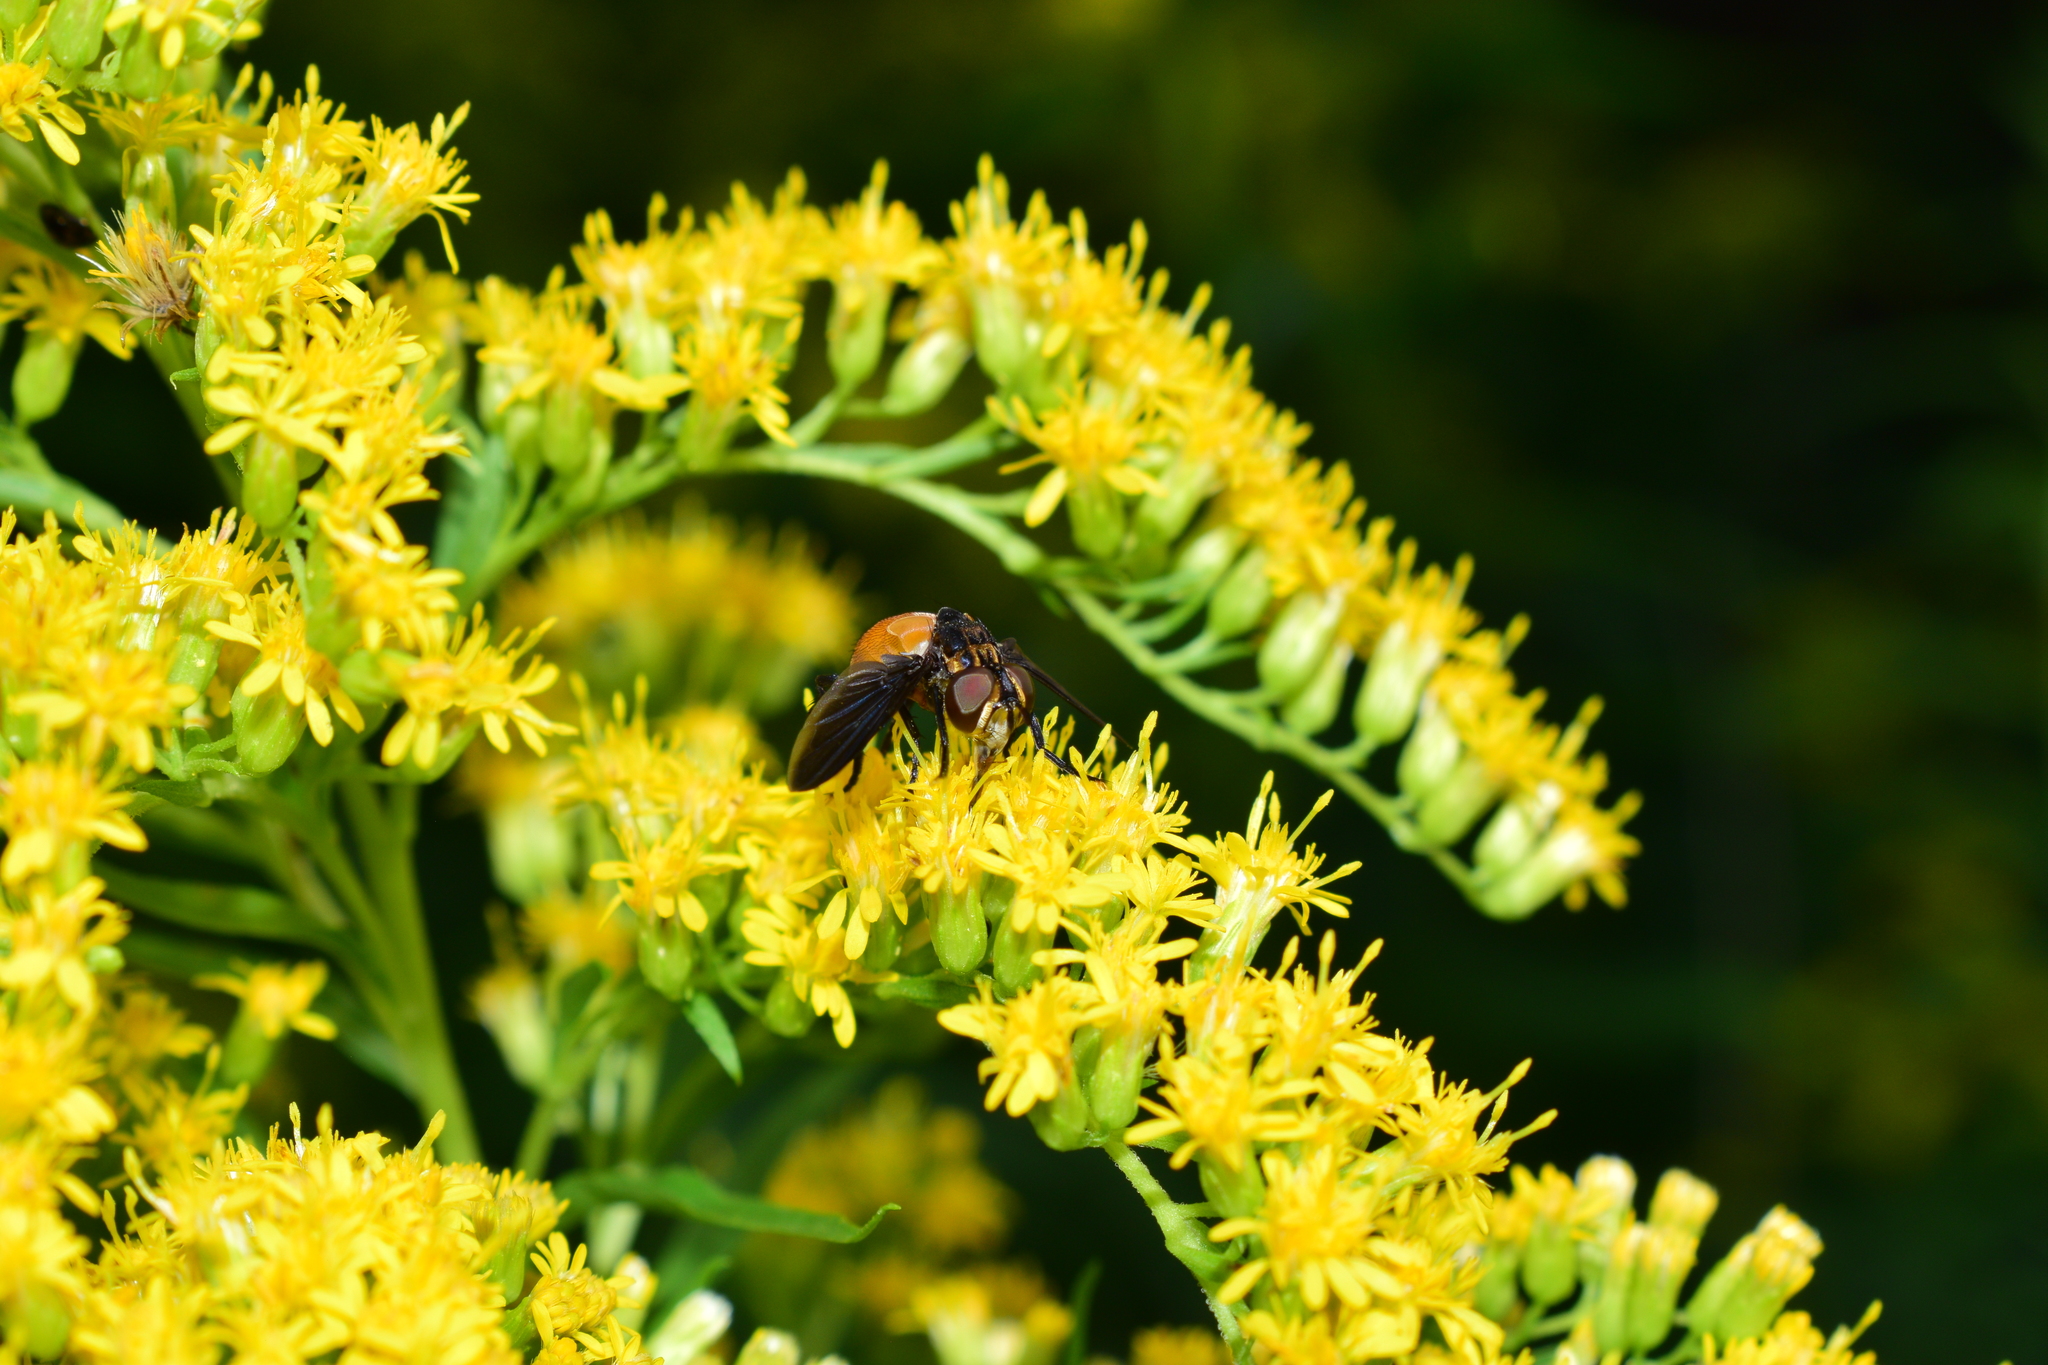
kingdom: Animalia
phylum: Arthropoda
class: Insecta
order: Diptera
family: Tachinidae
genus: Trichopoda
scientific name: Trichopoda pennipes
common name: Tachinid fly
